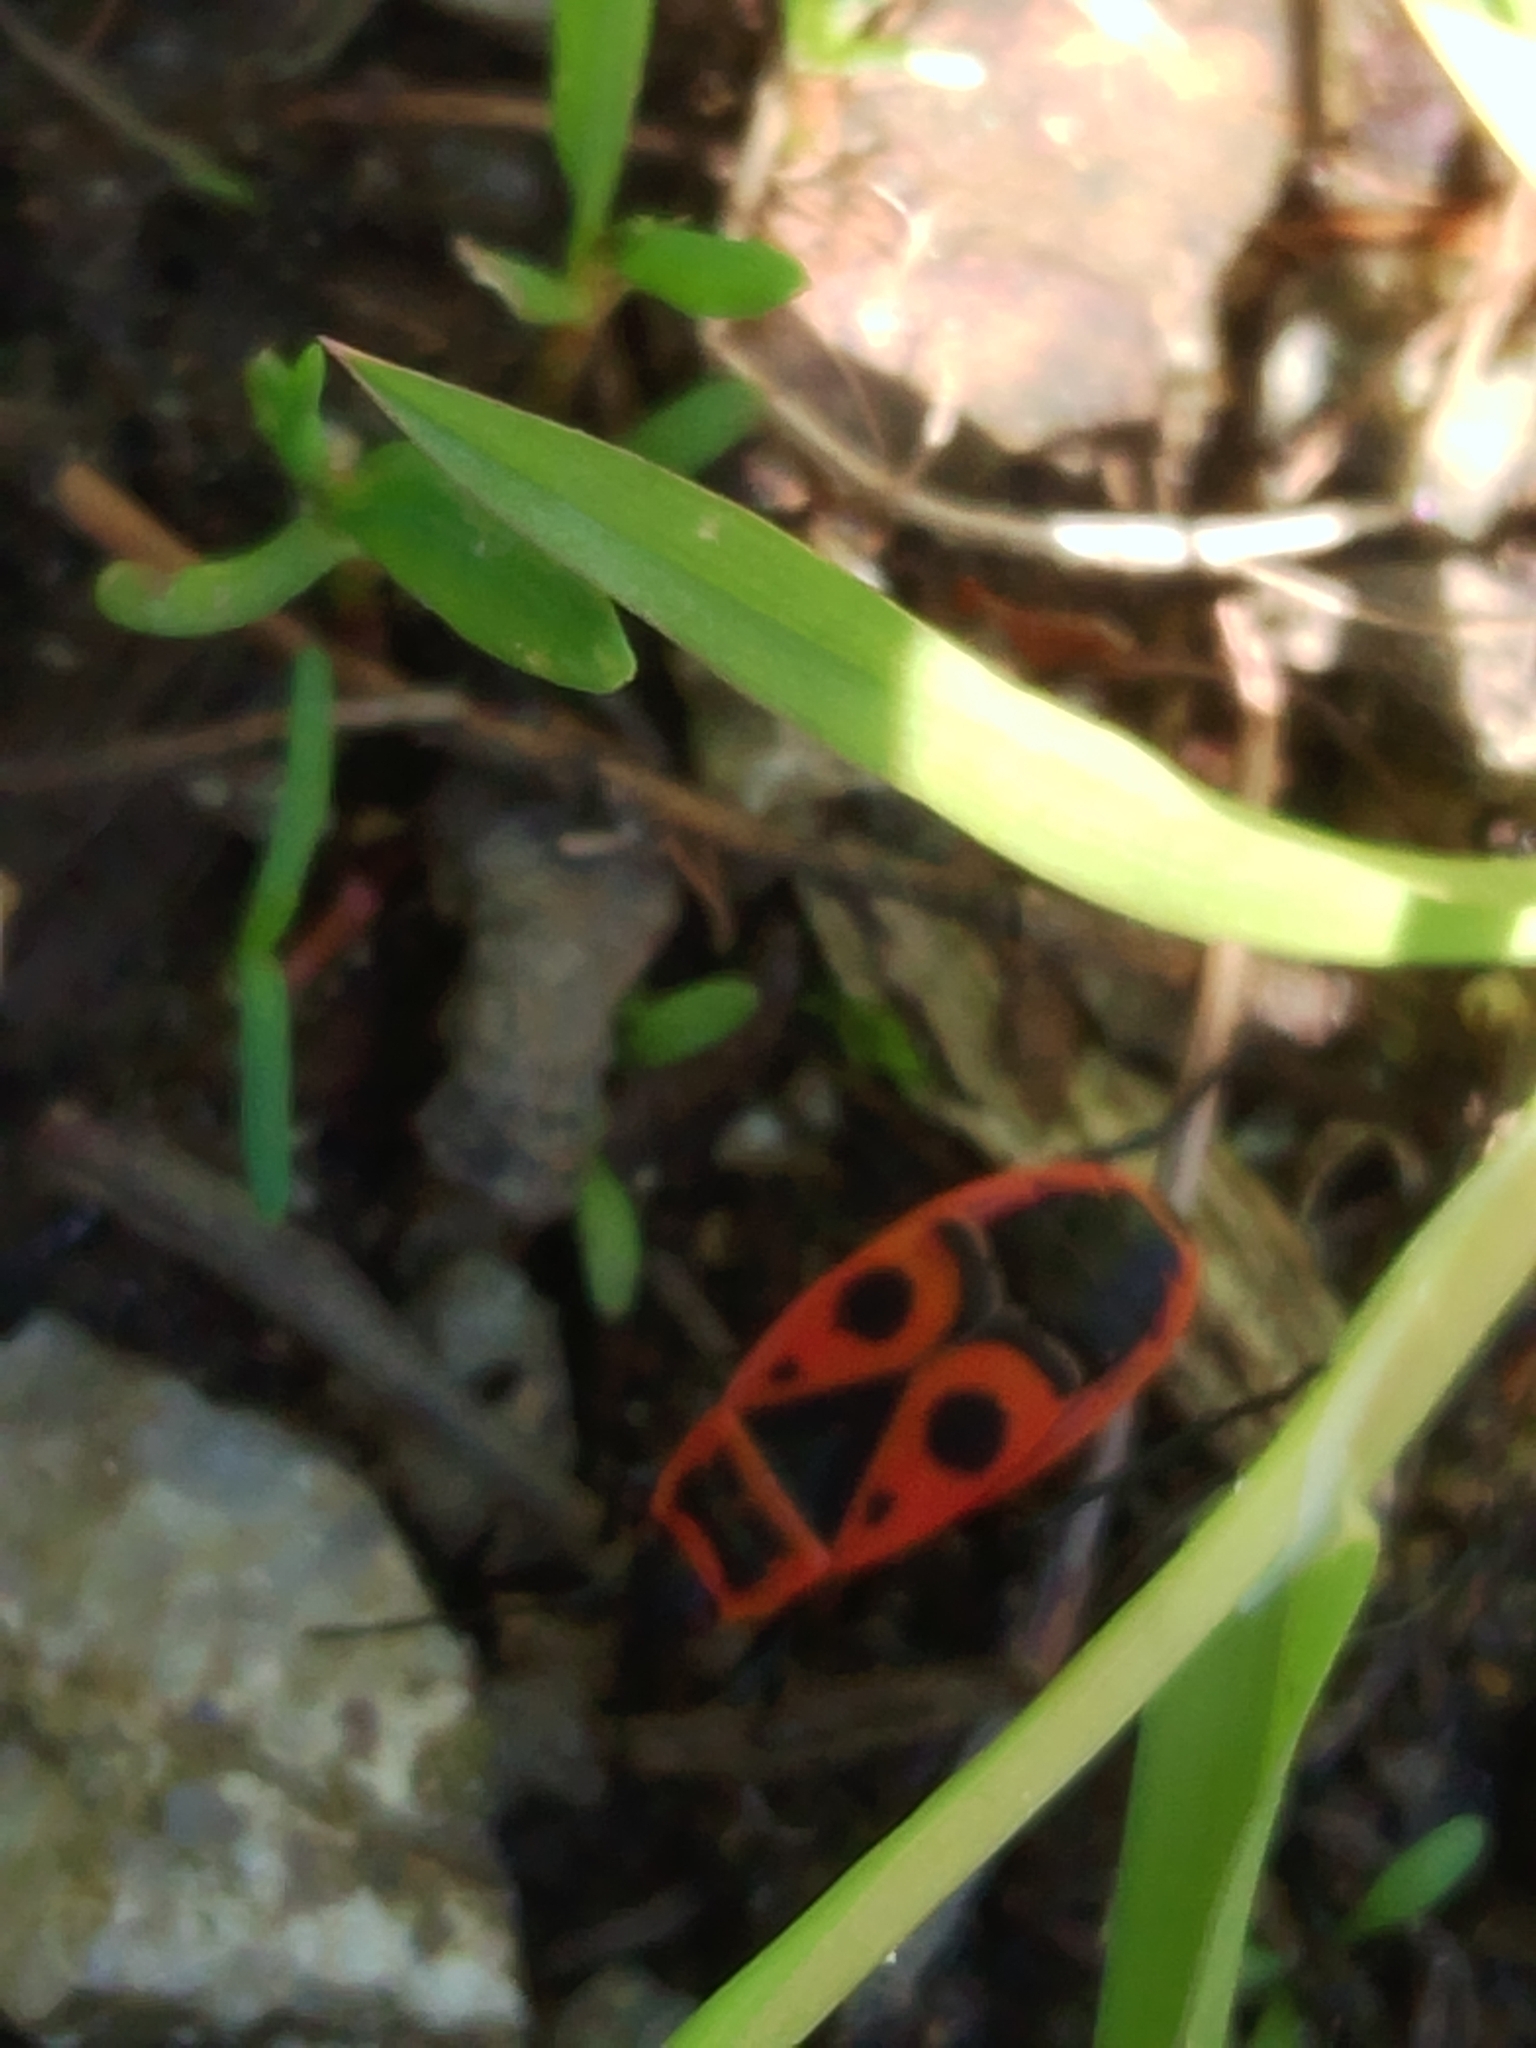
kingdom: Animalia
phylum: Arthropoda
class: Insecta
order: Hemiptera
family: Pyrrhocoridae
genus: Pyrrhocoris
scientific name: Pyrrhocoris apterus
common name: Firebug
